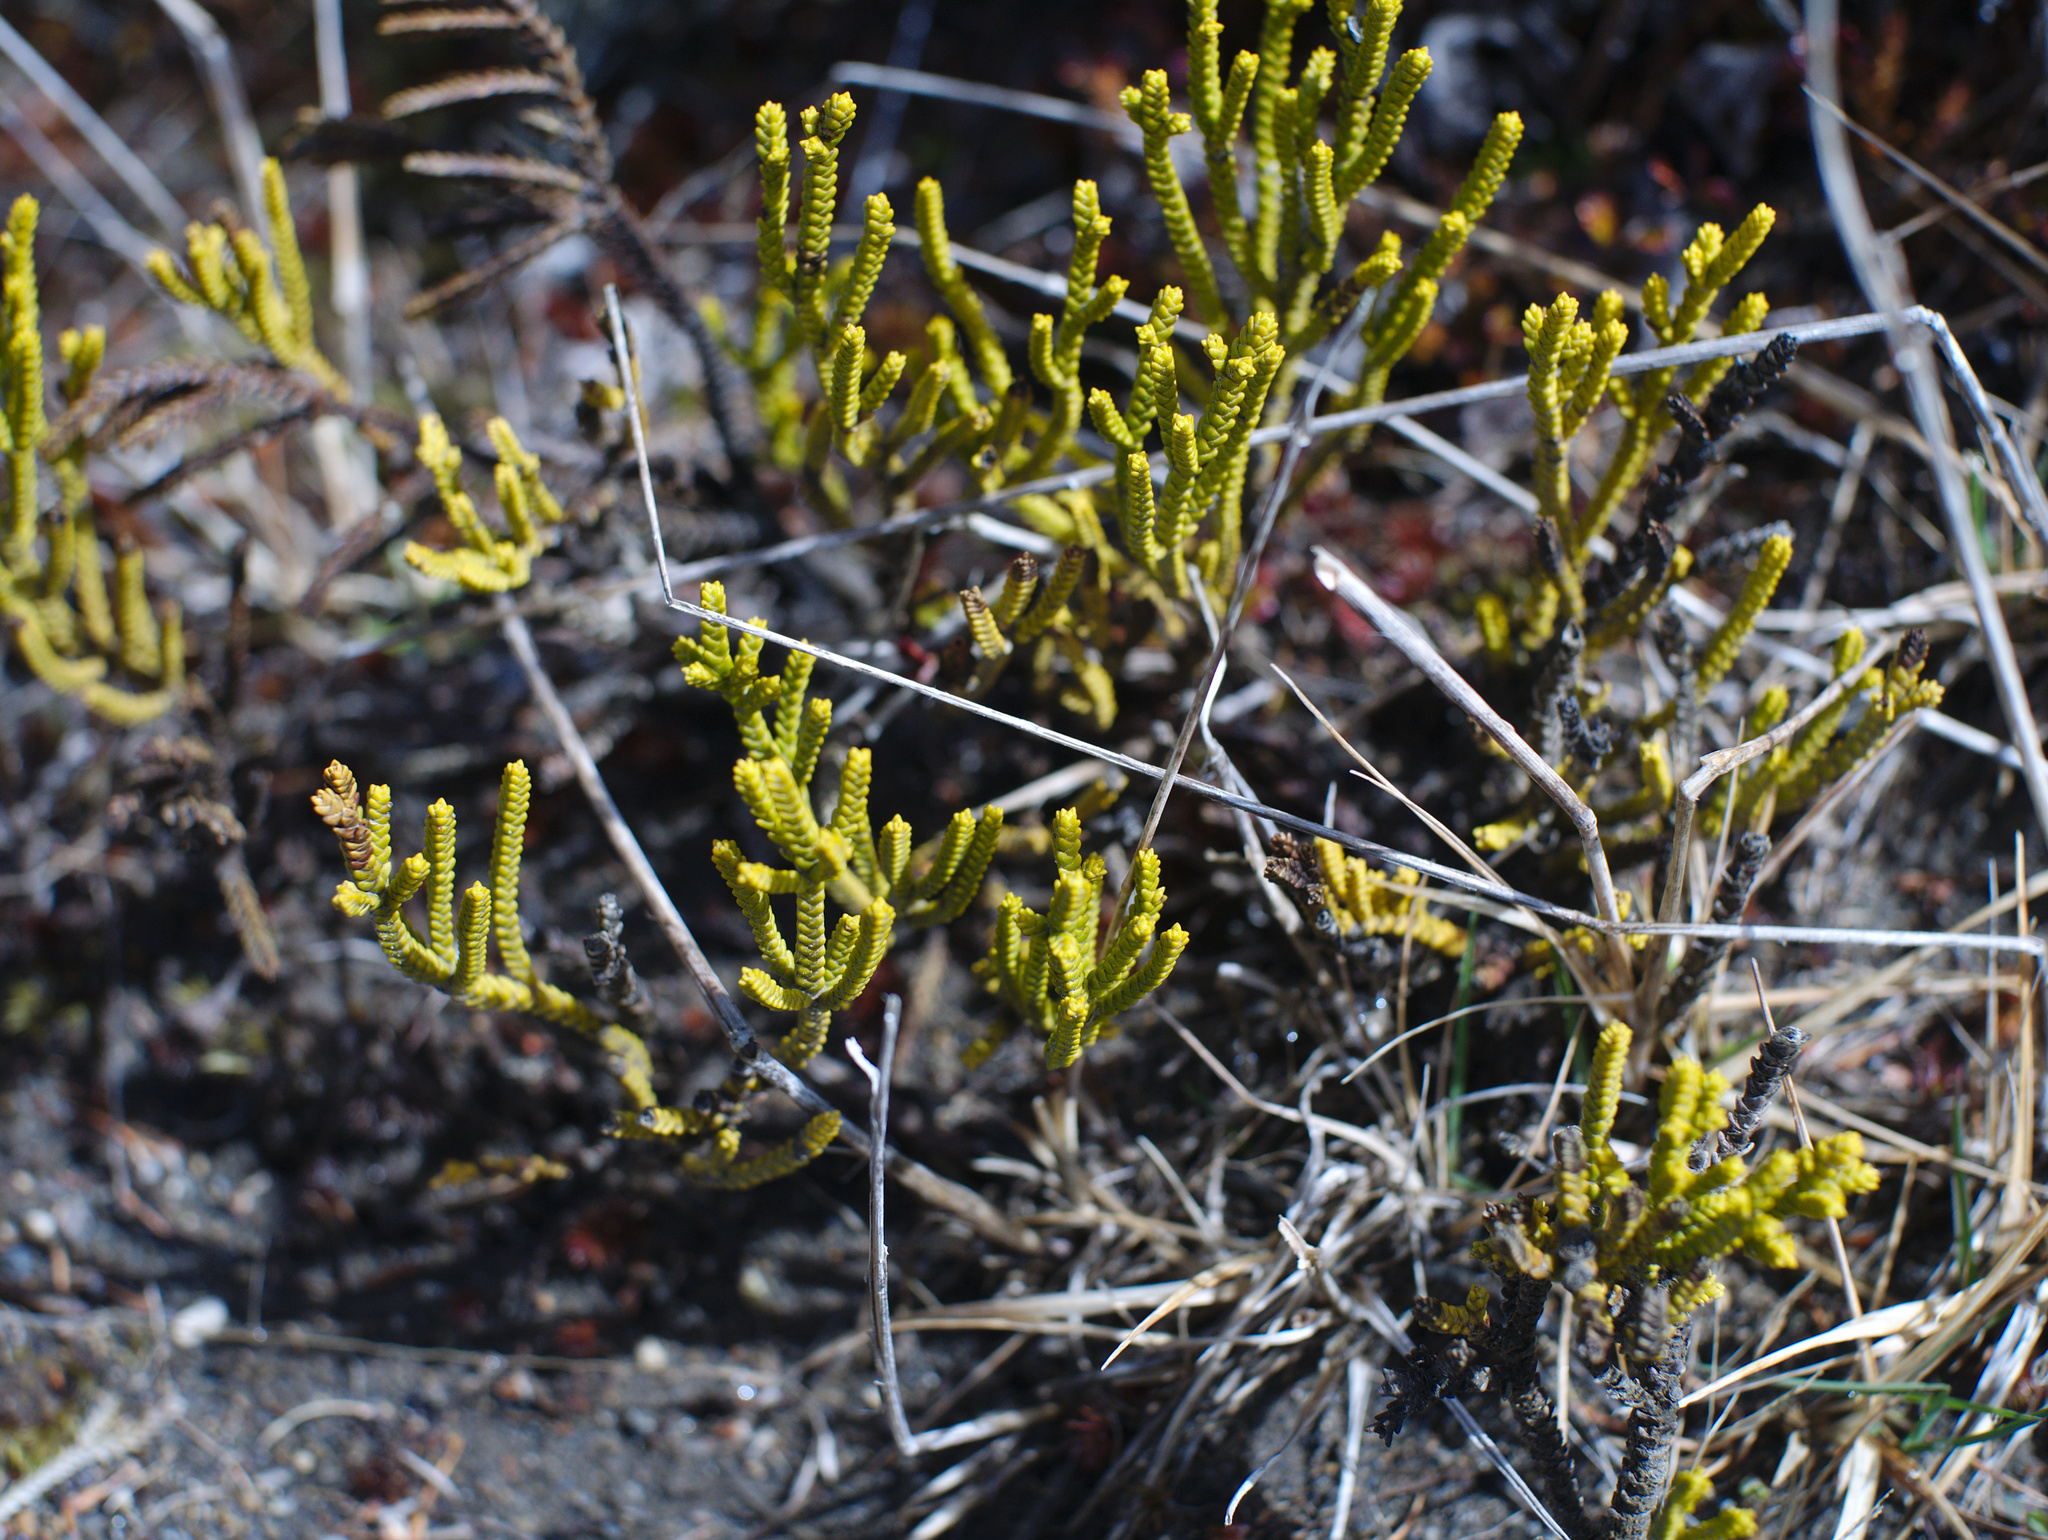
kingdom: Plantae
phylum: Tracheophyta
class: Magnoliopsida
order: Lamiales
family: Plantaginaceae
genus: Veronica
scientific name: Veronica tetragona
